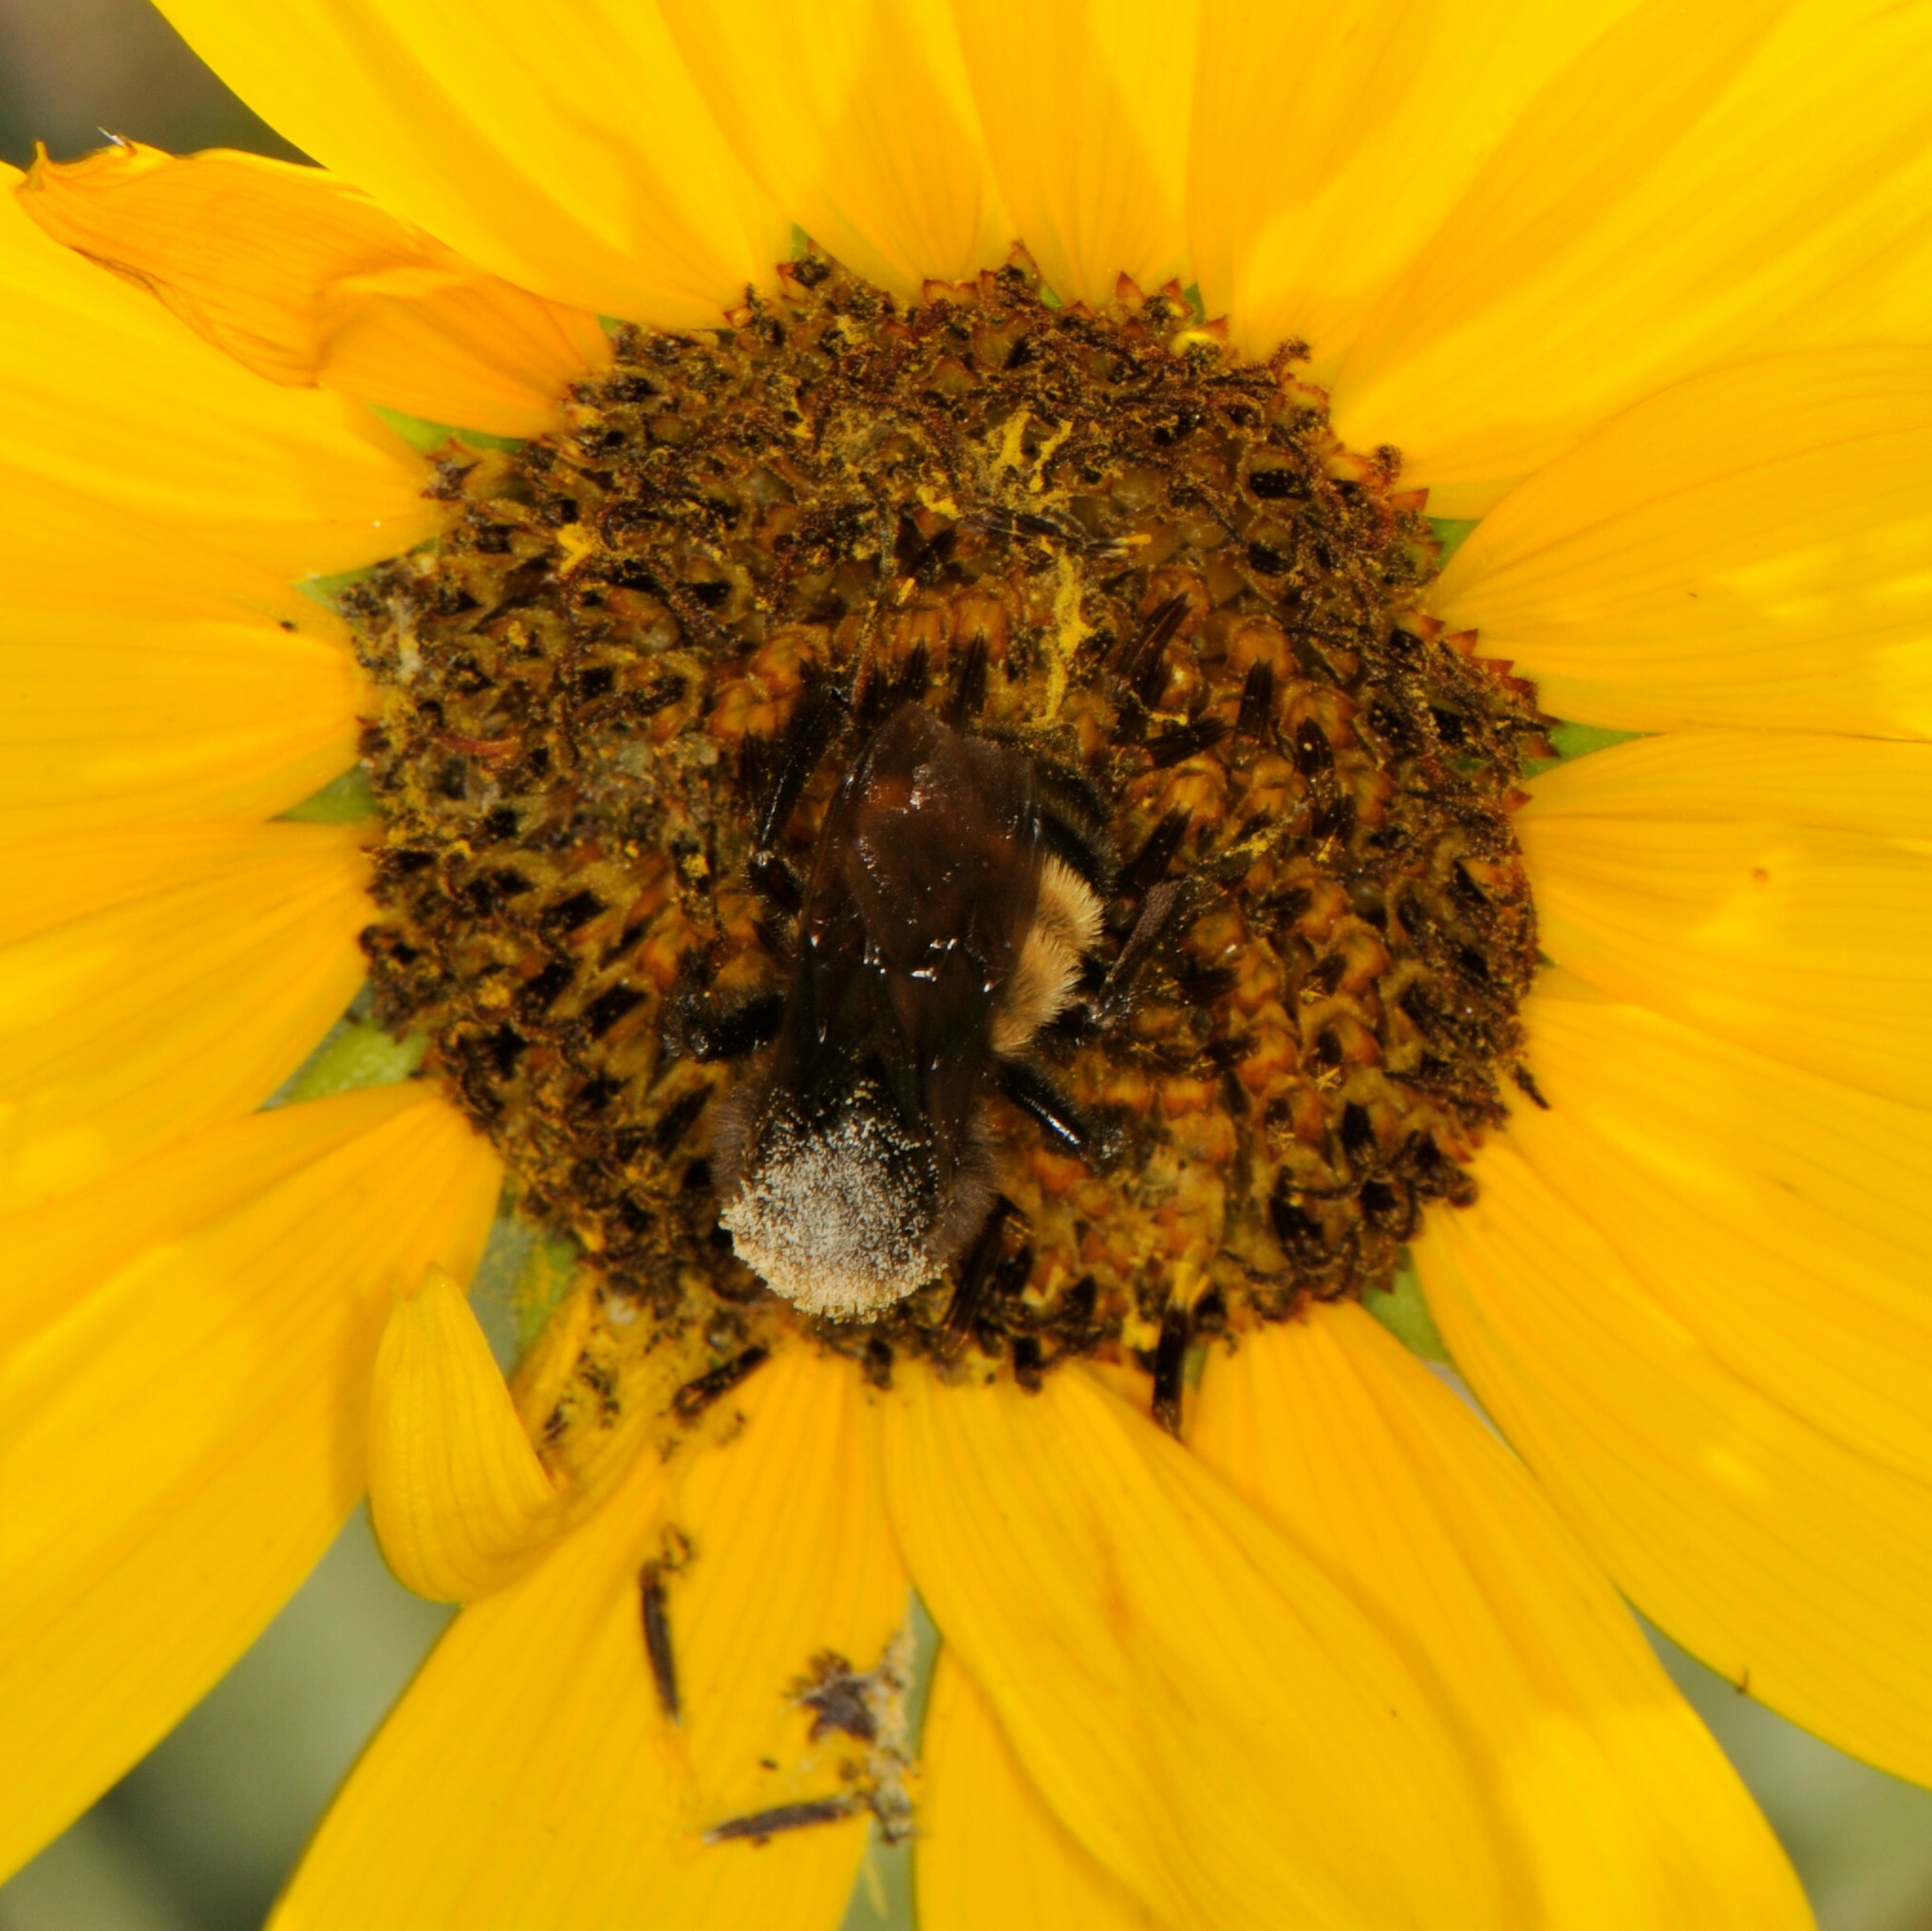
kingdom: Animalia
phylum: Arthropoda
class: Insecta
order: Hymenoptera
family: Apidae
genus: Bombus
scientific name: Bombus pensylvanicus
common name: Bumble bee
